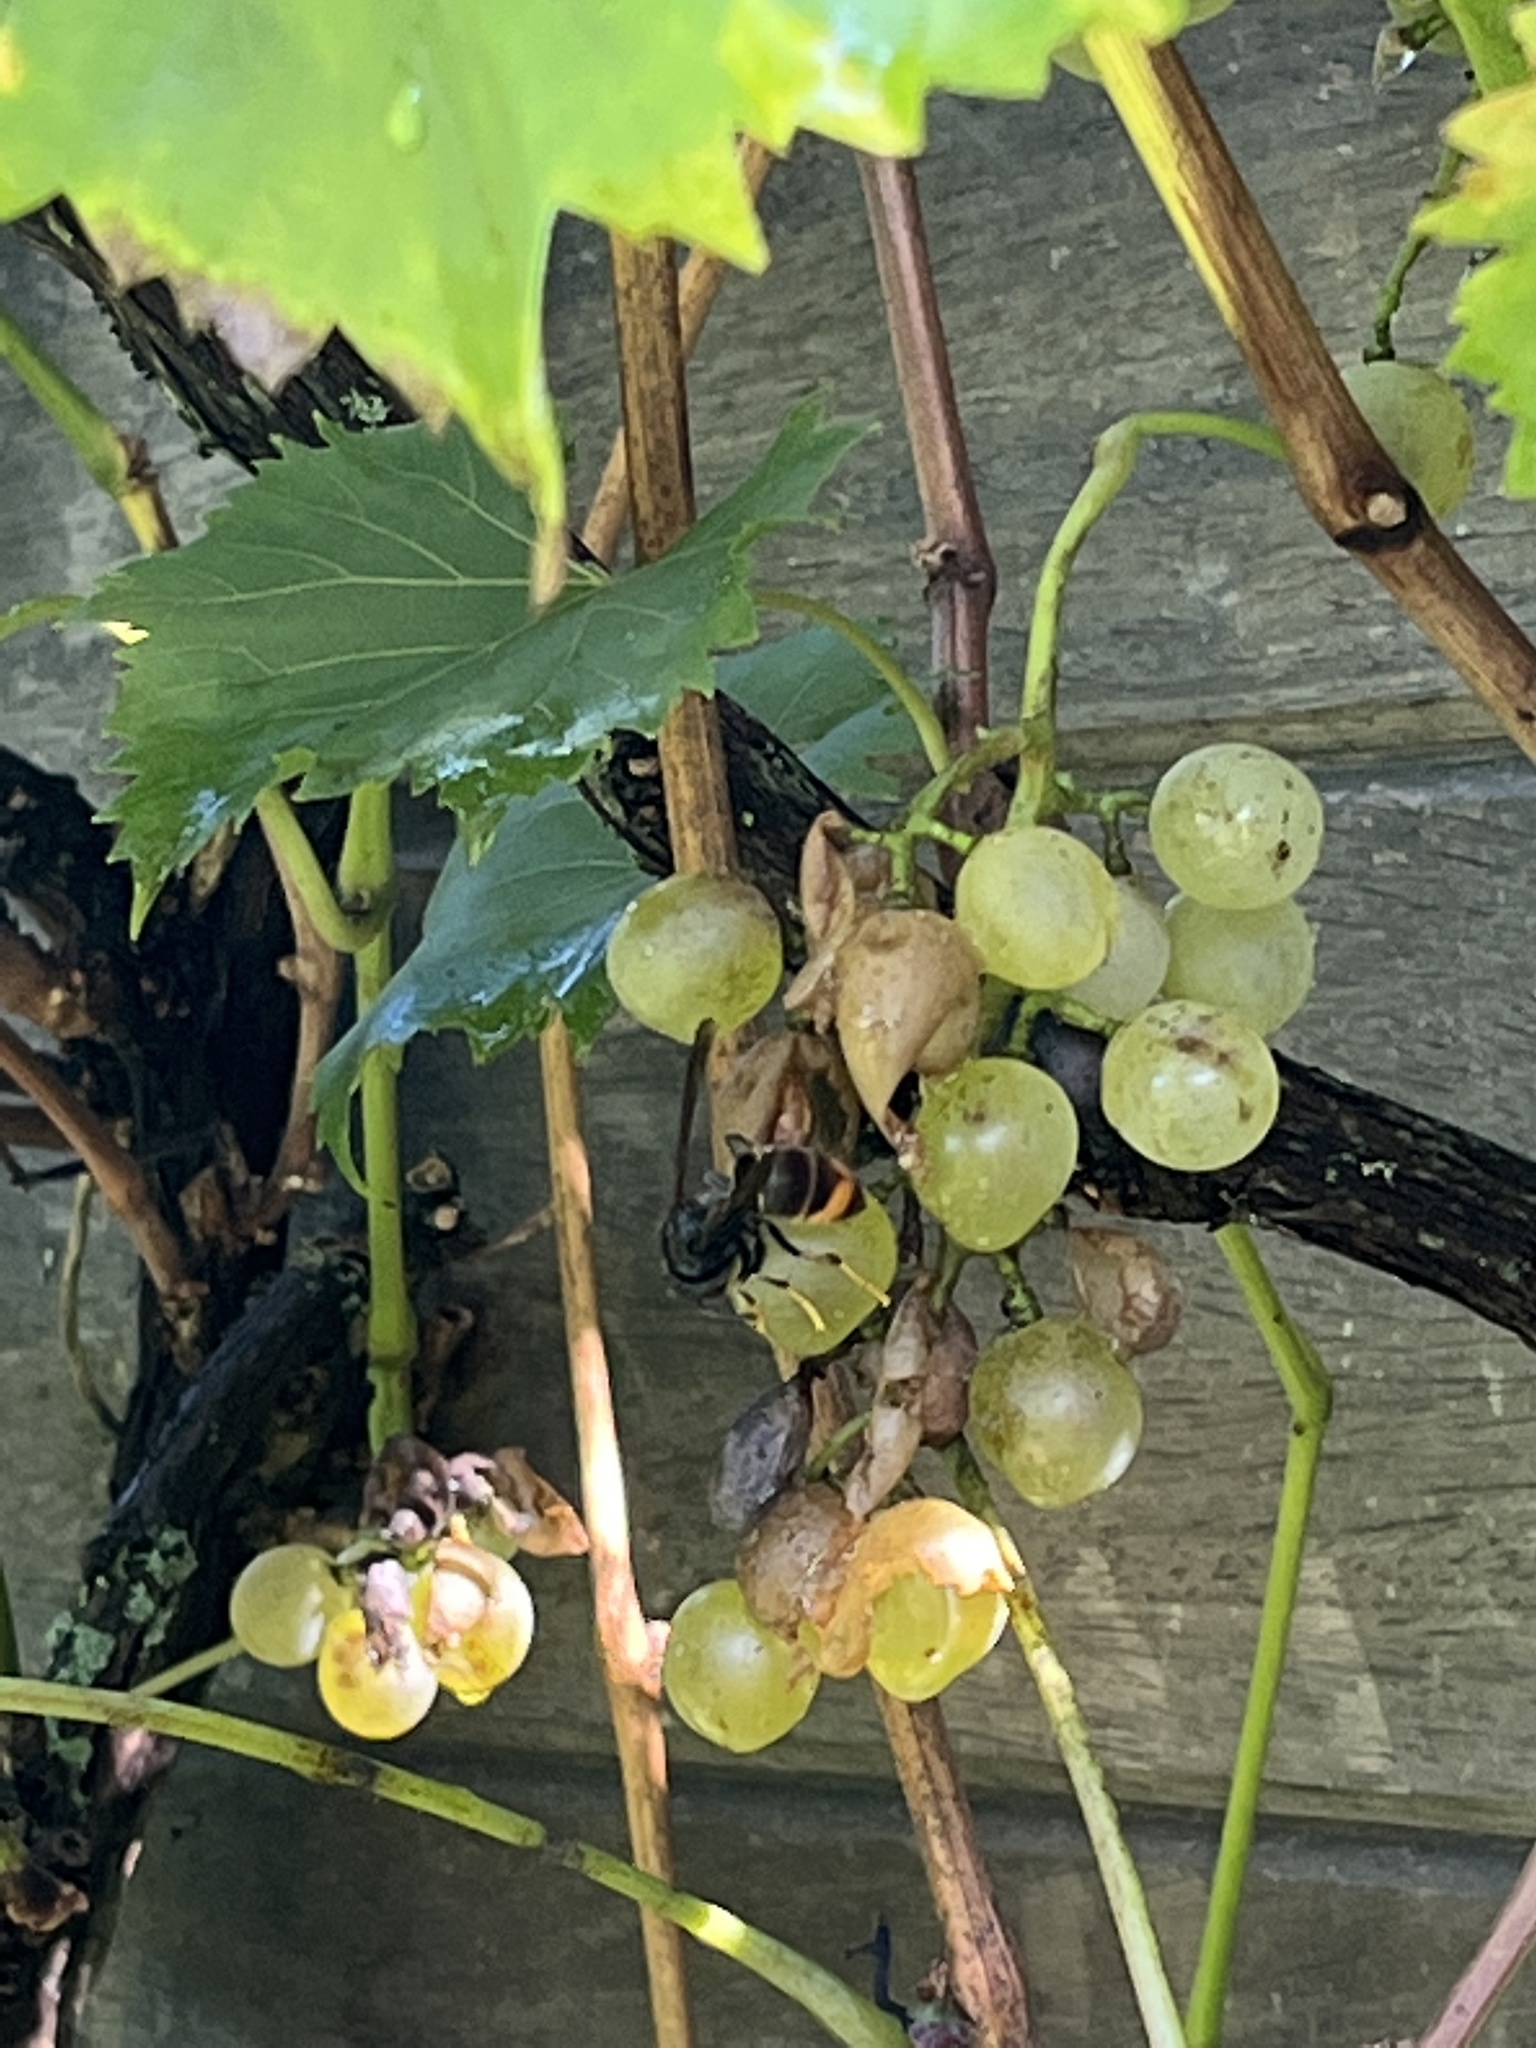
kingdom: Animalia
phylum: Arthropoda
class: Insecta
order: Hymenoptera
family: Vespidae
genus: Vespa
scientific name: Vespa velutina
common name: Asian hornet
